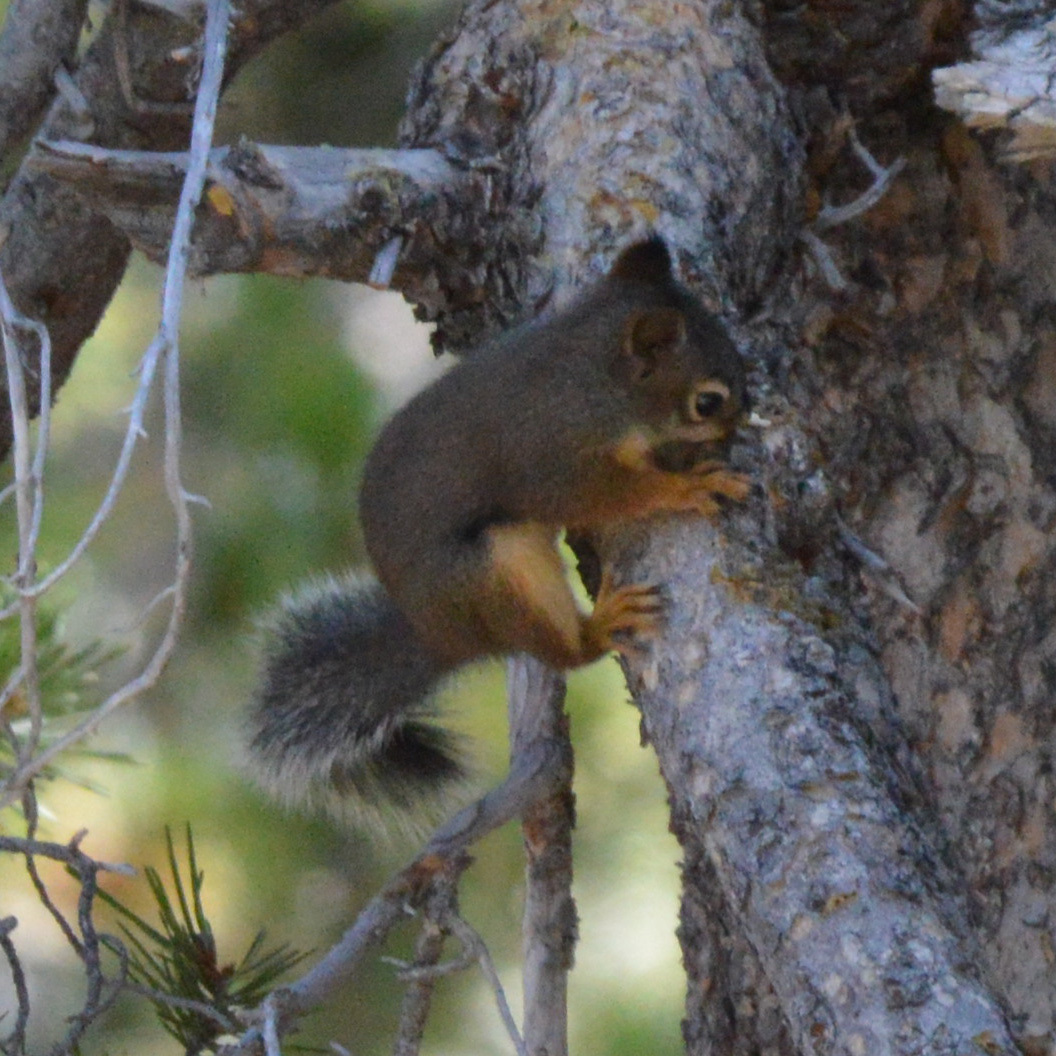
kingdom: Animalia
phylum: Chordata
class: Mammalia
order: Rodentia
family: Sciuridae
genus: Tamiasciurus
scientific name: Tamiasciurus douglasii
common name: Douglas's squirrel
